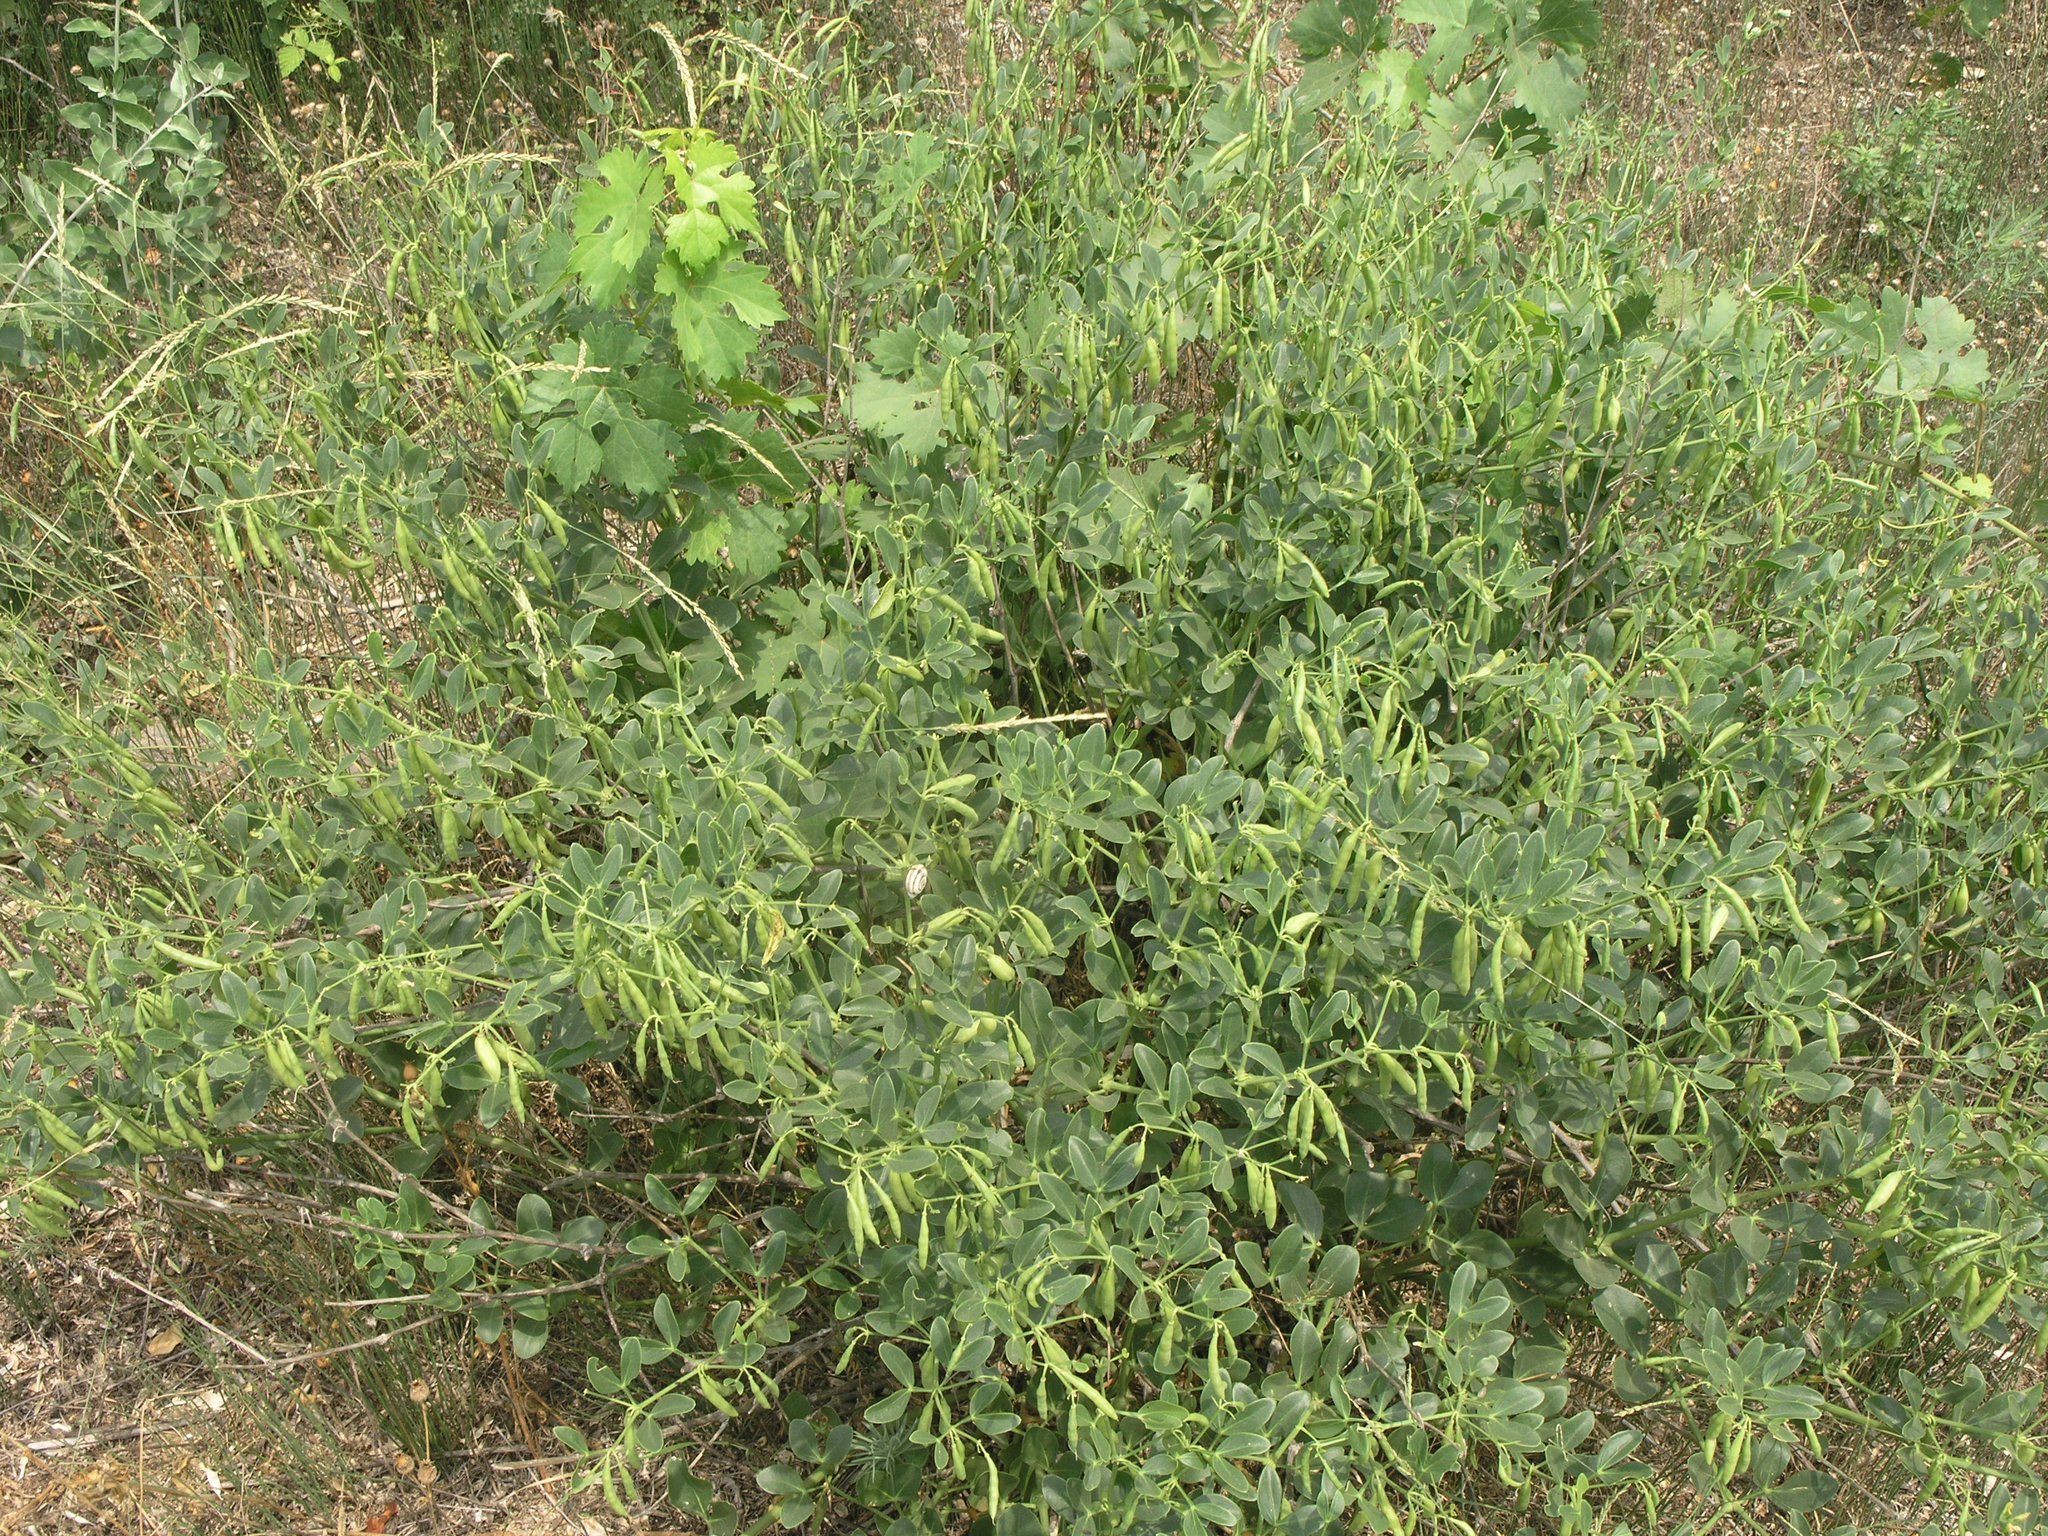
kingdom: Plantae
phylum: Tracheophyta
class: Magnoliopsida
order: Zygophyllales
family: Zygophyllaceae
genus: Zygophyllum
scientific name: Zygophyllum fabago
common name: Syrian beancaper
